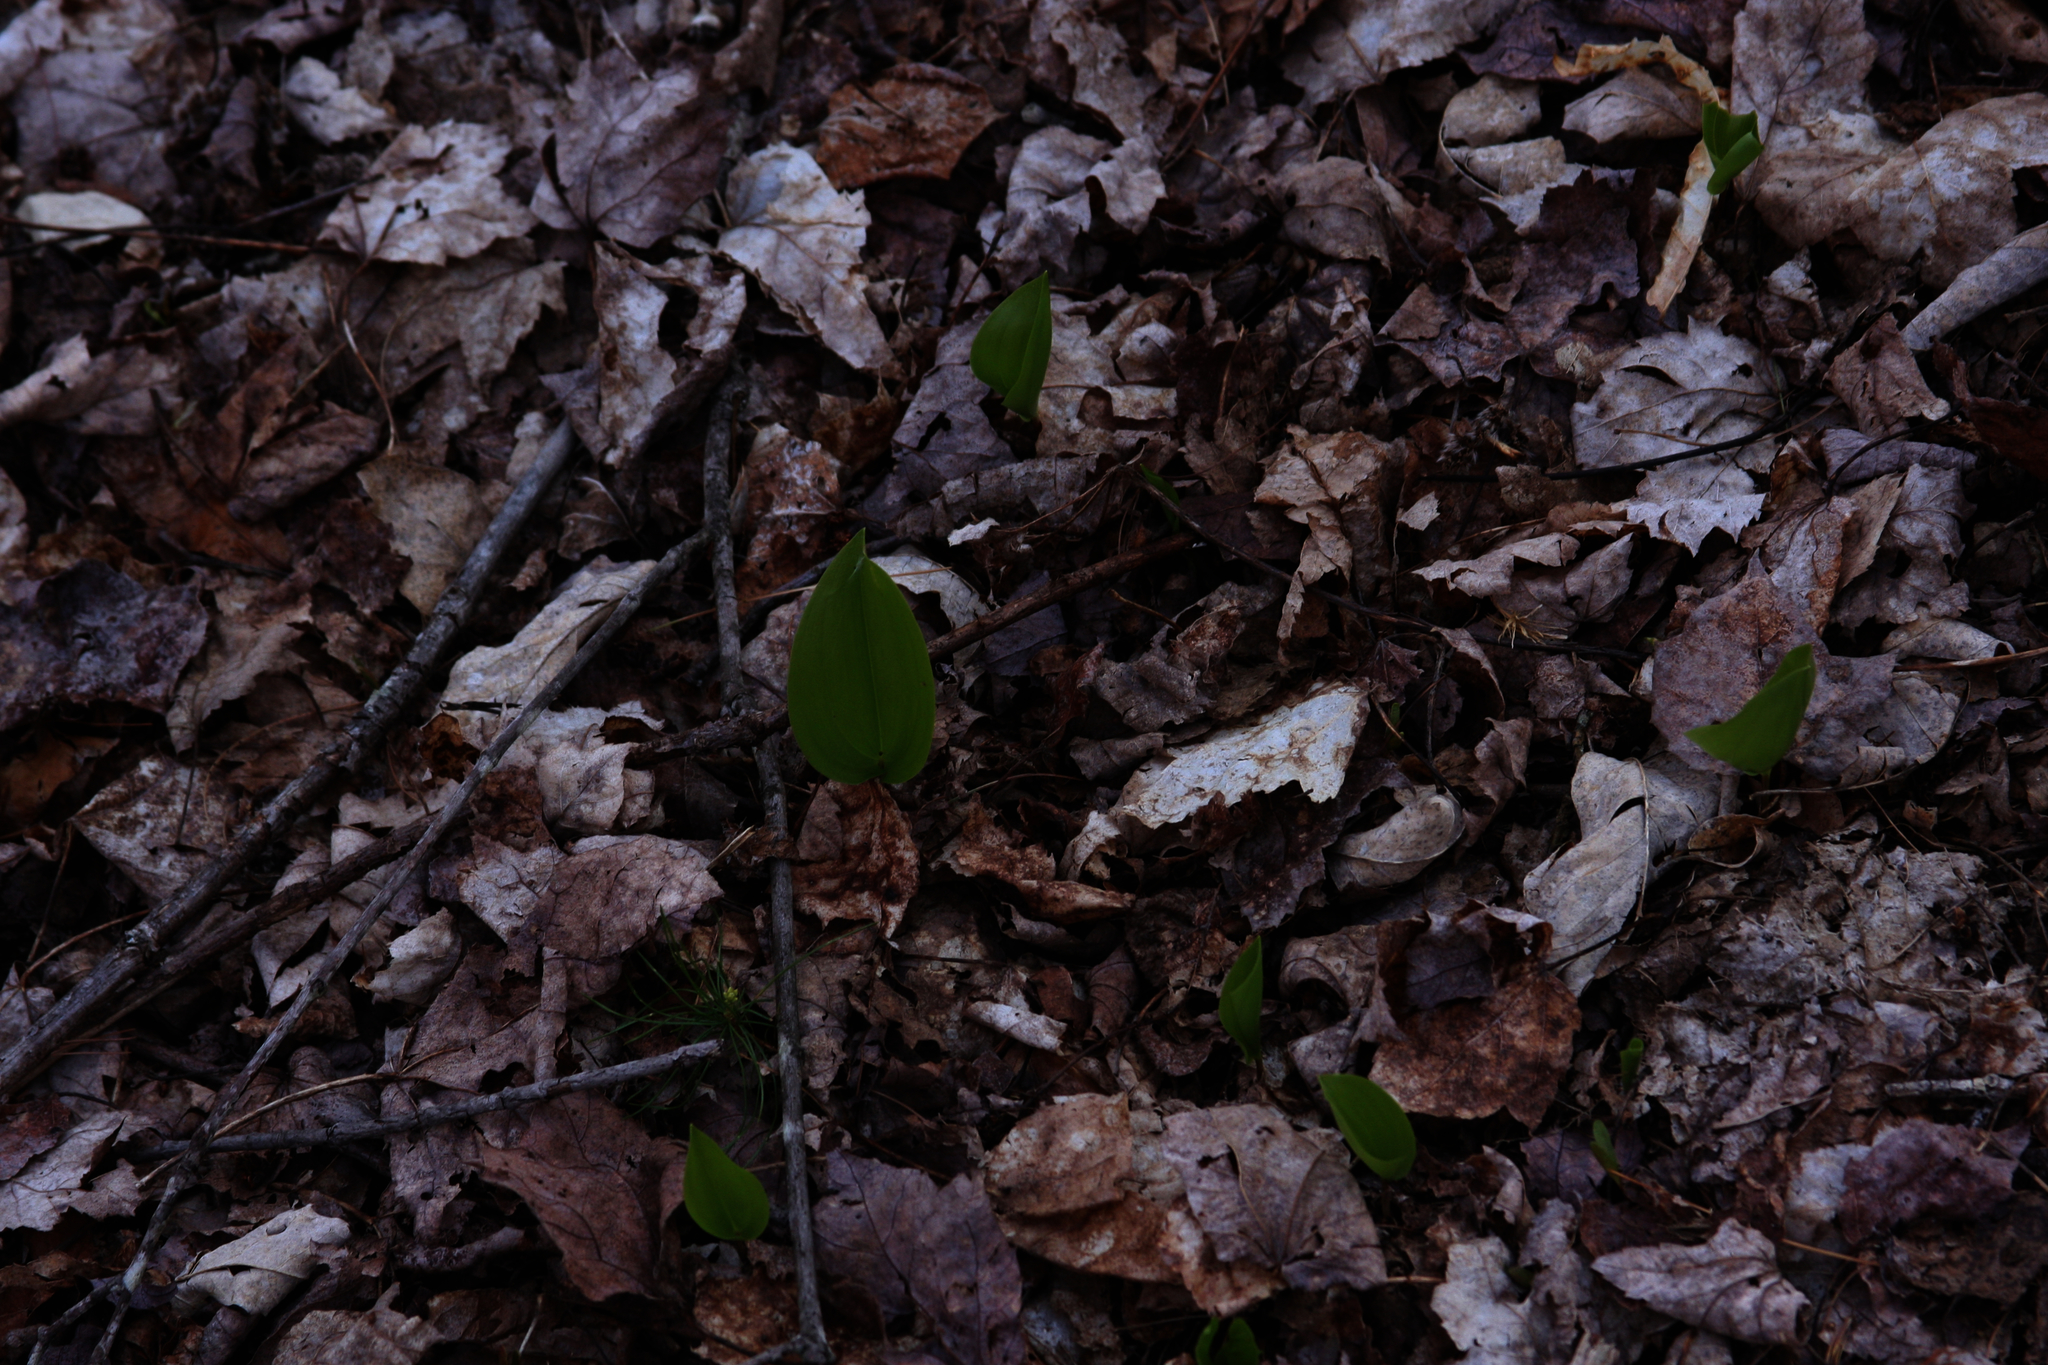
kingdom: Plantae
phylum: Tracheophyta
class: Liliopsida
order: Asparagales
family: Asparagaceae
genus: Maianthemum
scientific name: Maianthemum canadense
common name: False lily-of-the-valley
